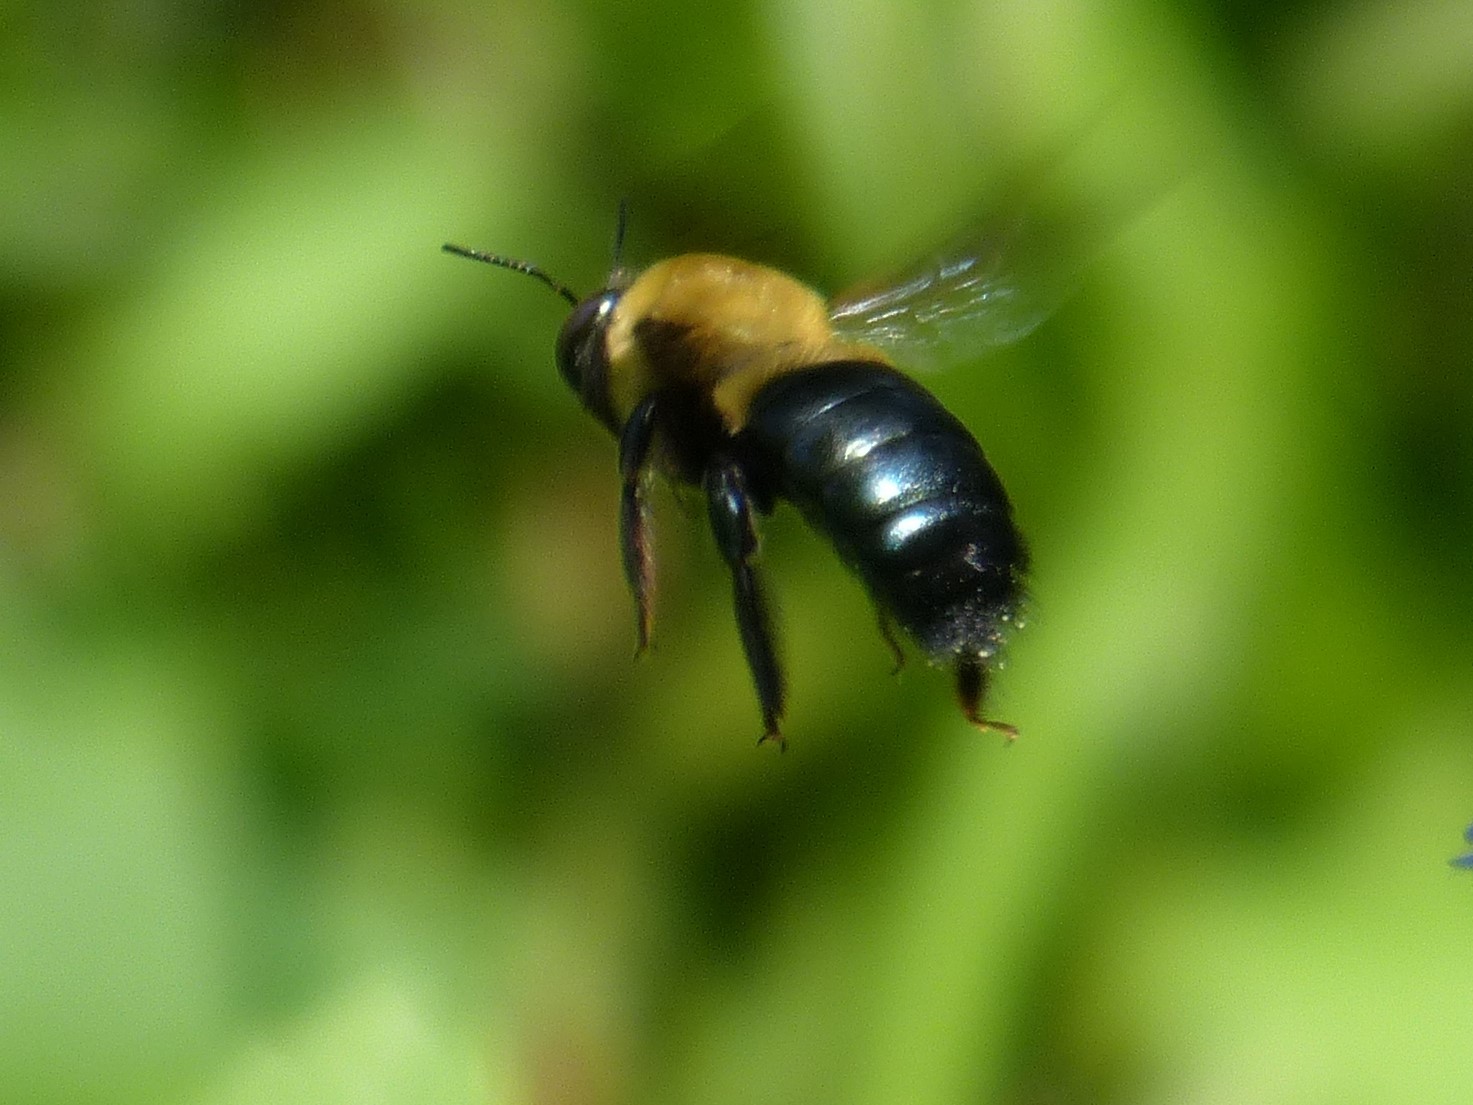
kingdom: Animalia
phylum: Arthropoda
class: Insecta
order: Hymenoptera
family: Apidae
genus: Xylocopa
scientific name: Xylocopa virginica
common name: Carpenter bee
